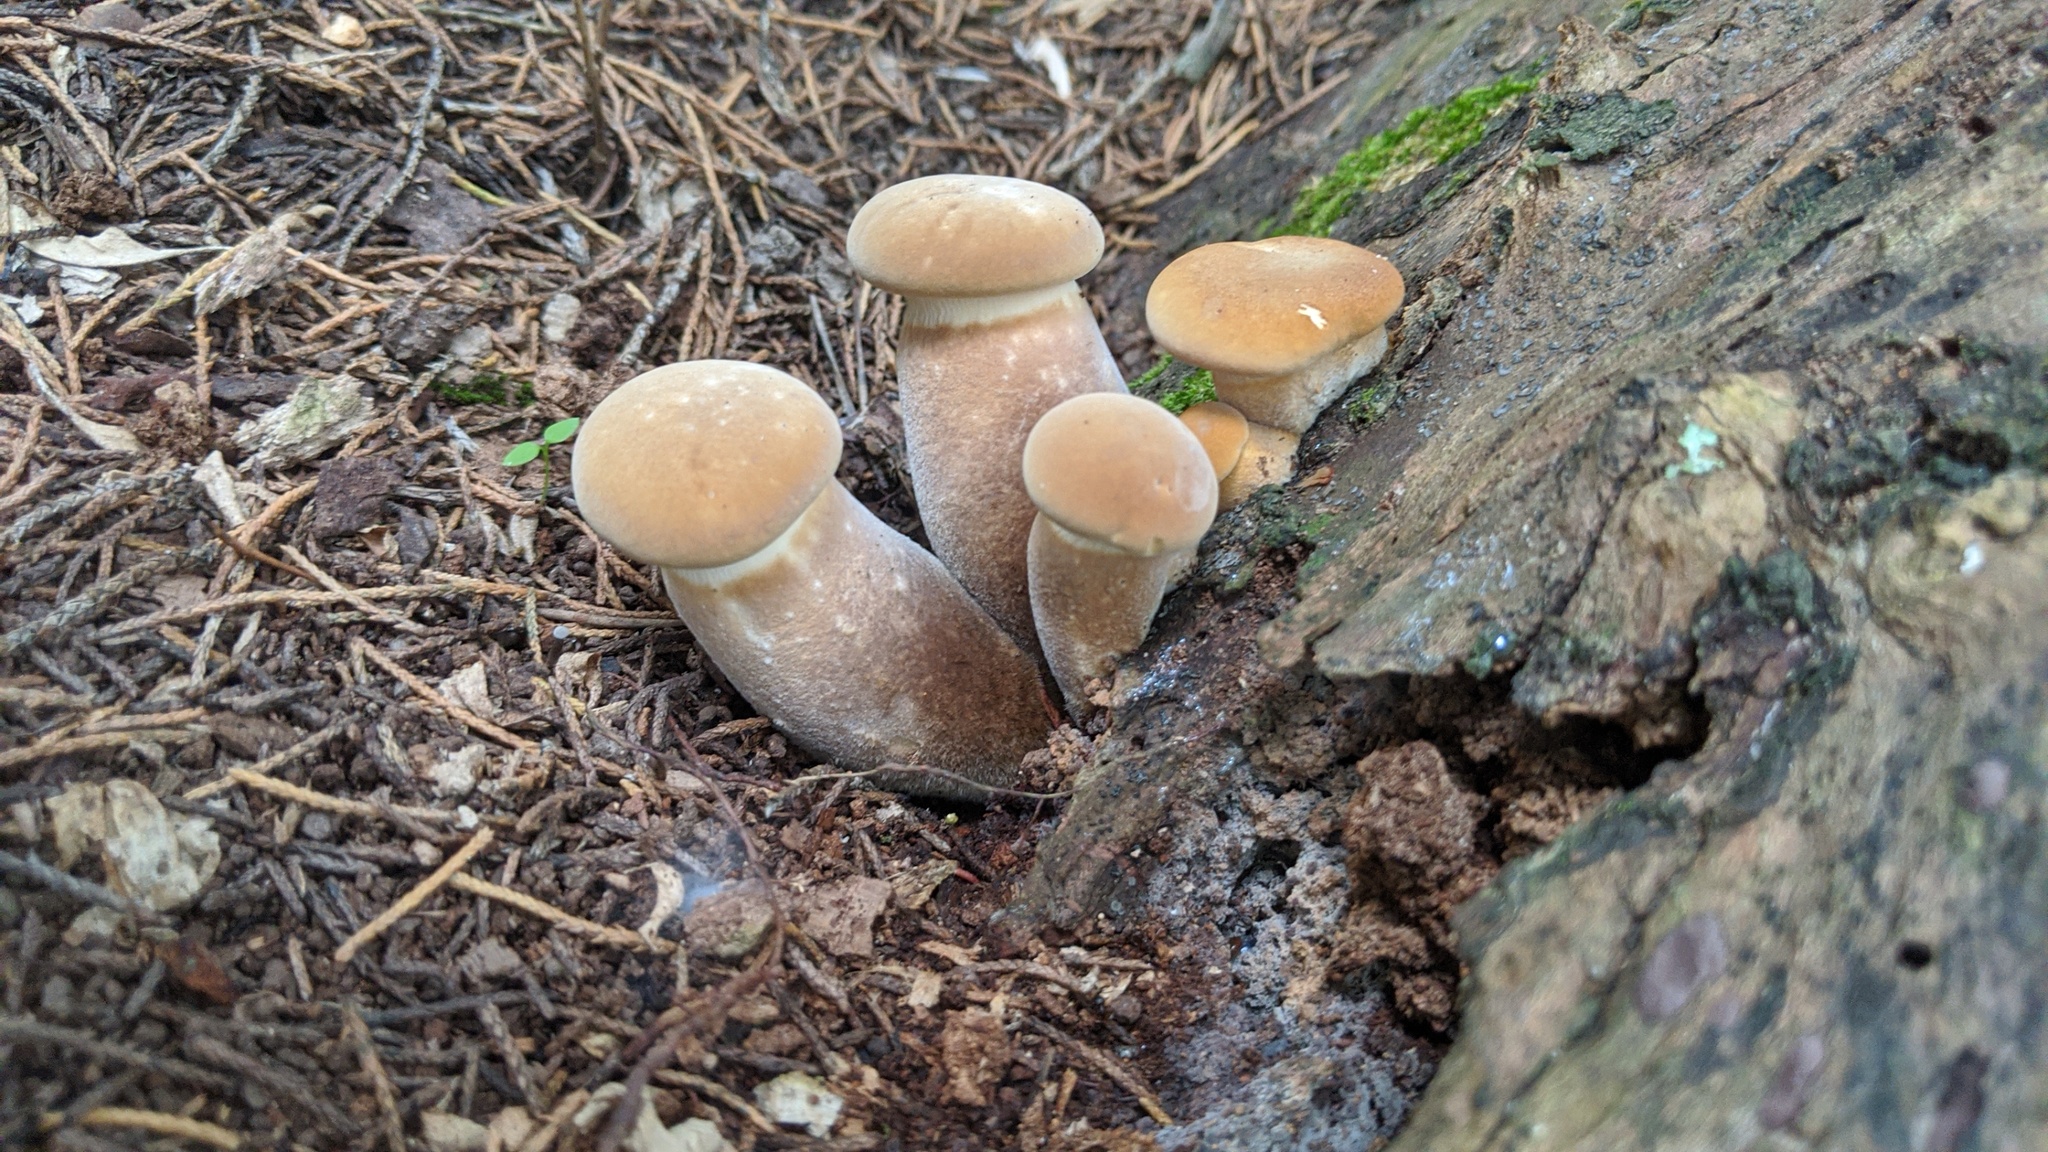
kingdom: Fungi
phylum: Basidiomycota
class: Agaricomycetes
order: Boletales
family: Tapinellaceae
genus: Tapinella
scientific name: Tapinella atrotomentosa
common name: Velvet rollrim
